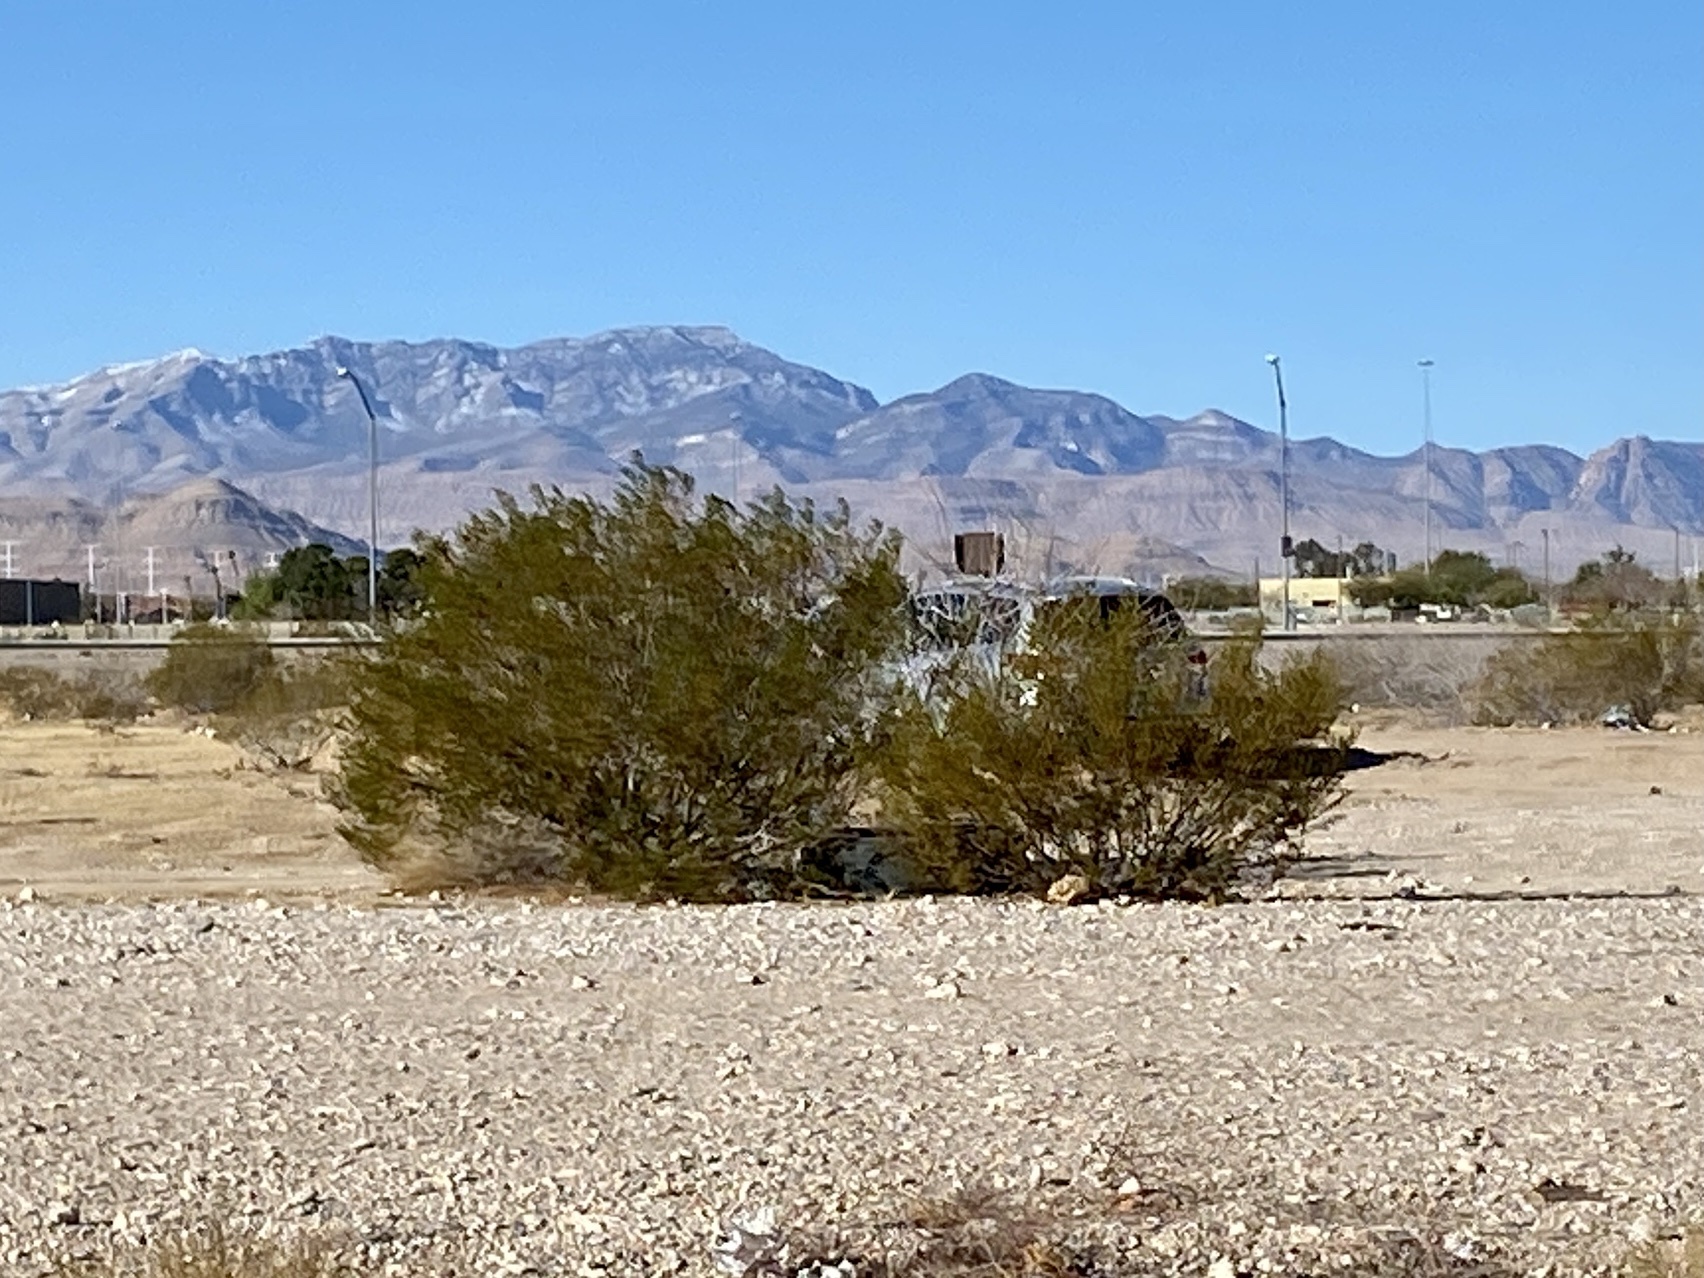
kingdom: Plantae
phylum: Tracheophyta
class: Magnoliopsida
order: Zygophyllales
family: Zygophyllaceae
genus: Larrea
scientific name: Larrea tridentata
